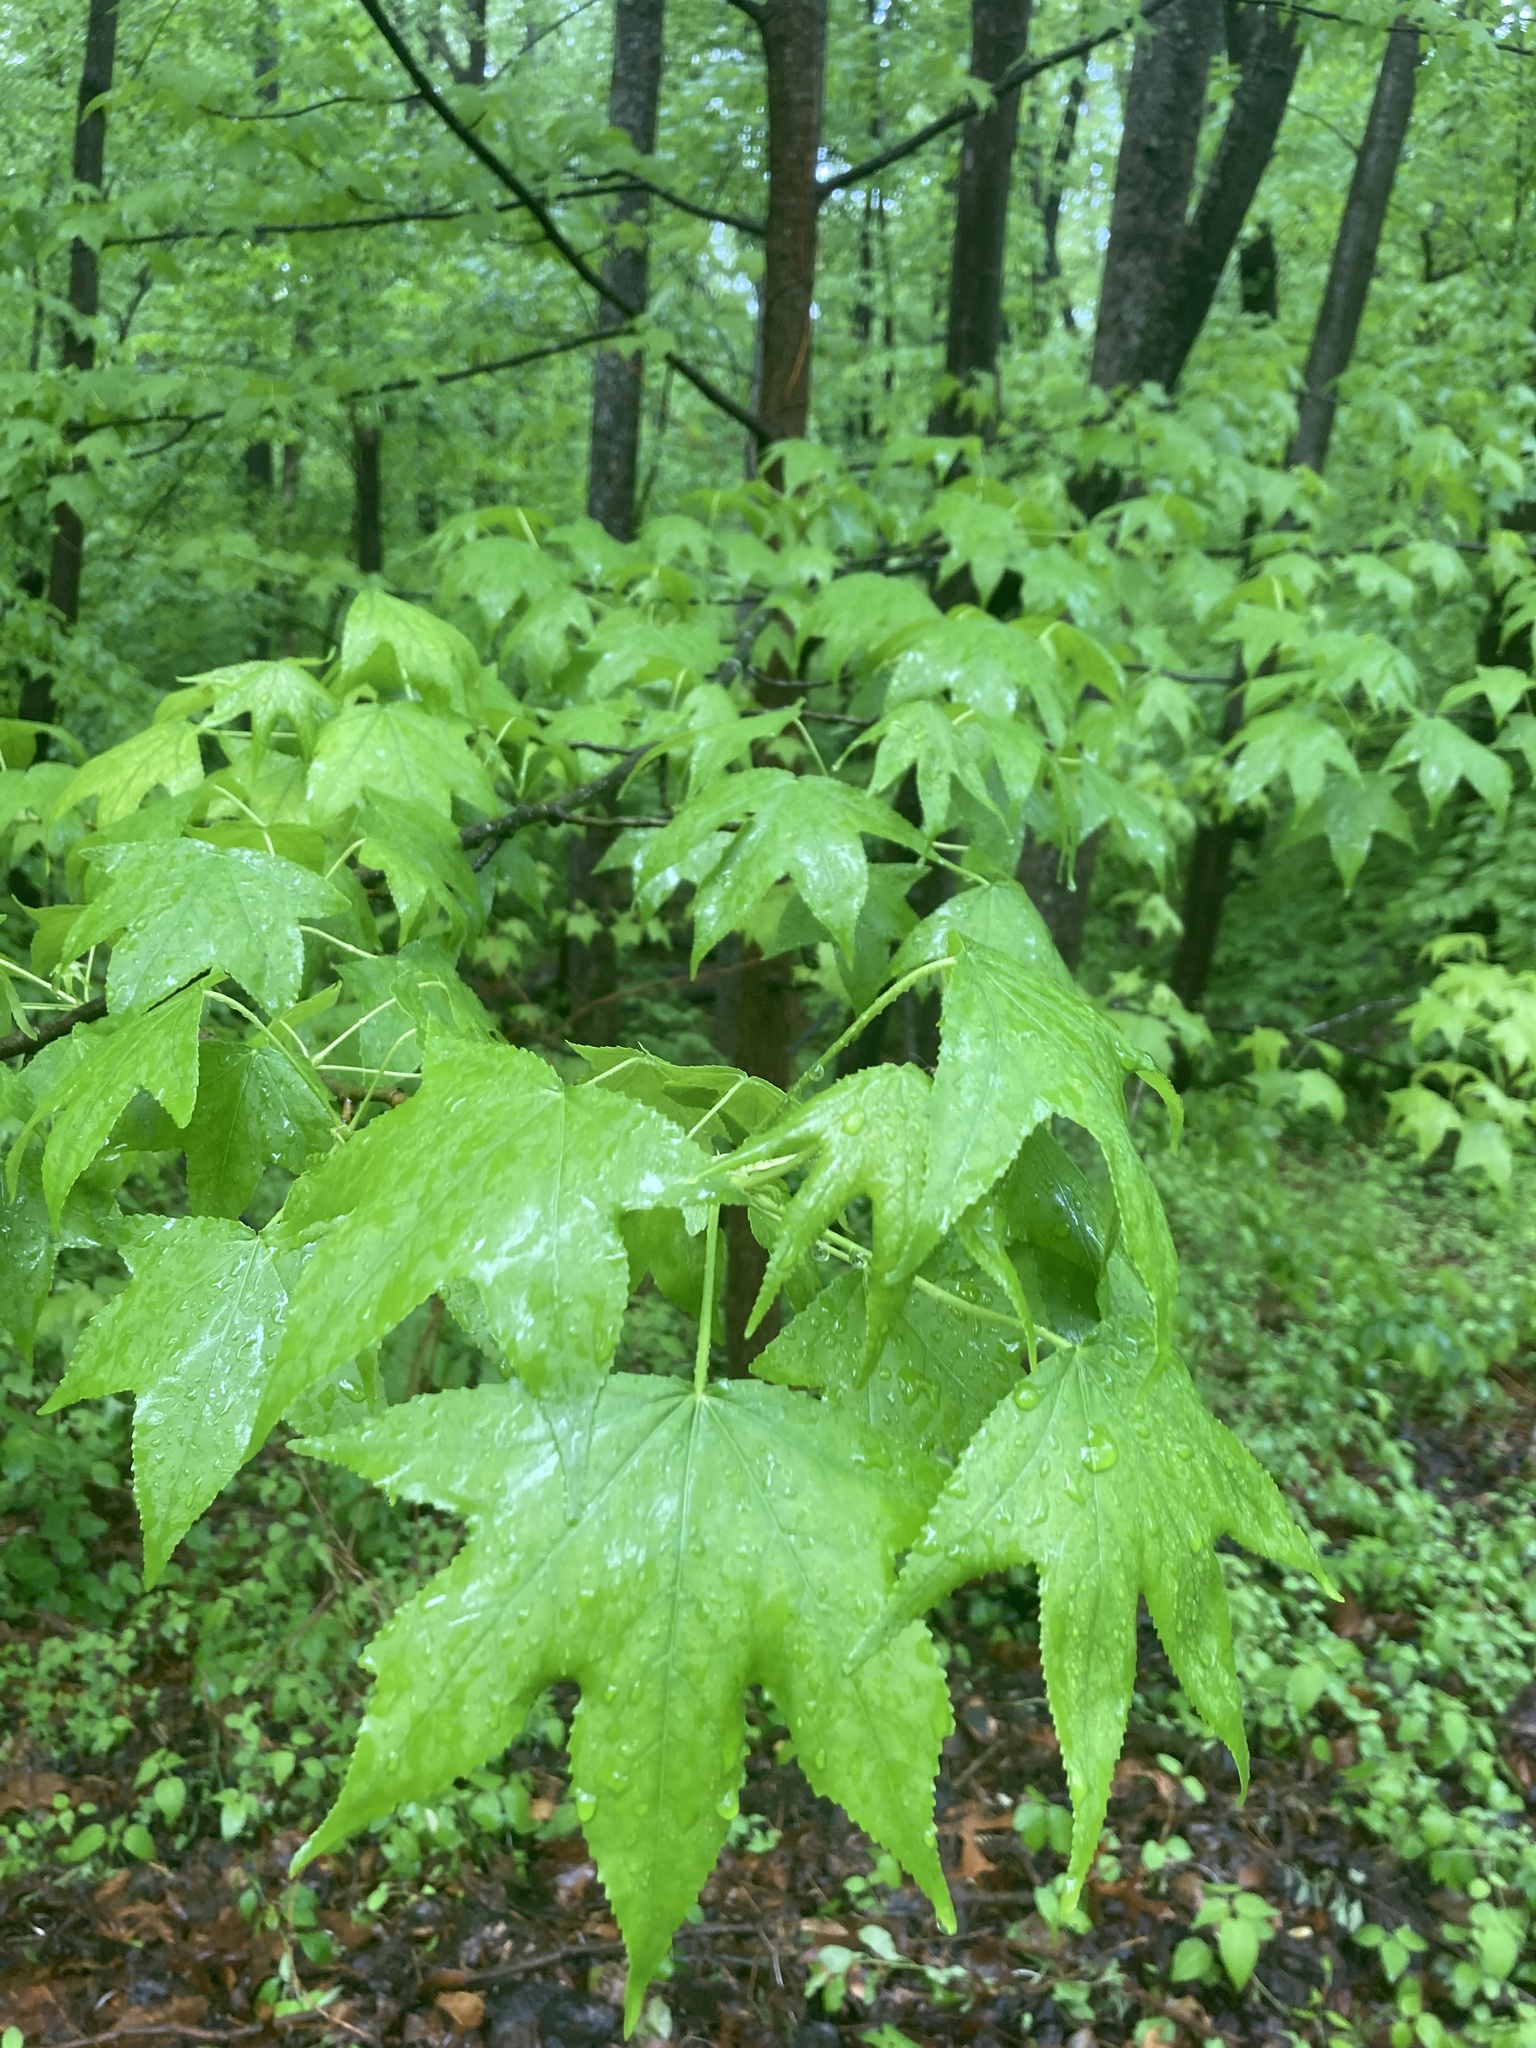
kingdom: Plantae
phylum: Tracheophyta
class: Magnoliopsida
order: Saxifragales
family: Altingiaceae
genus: Liquidambar
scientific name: Liquidambar styraciflua
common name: Sweet gum
